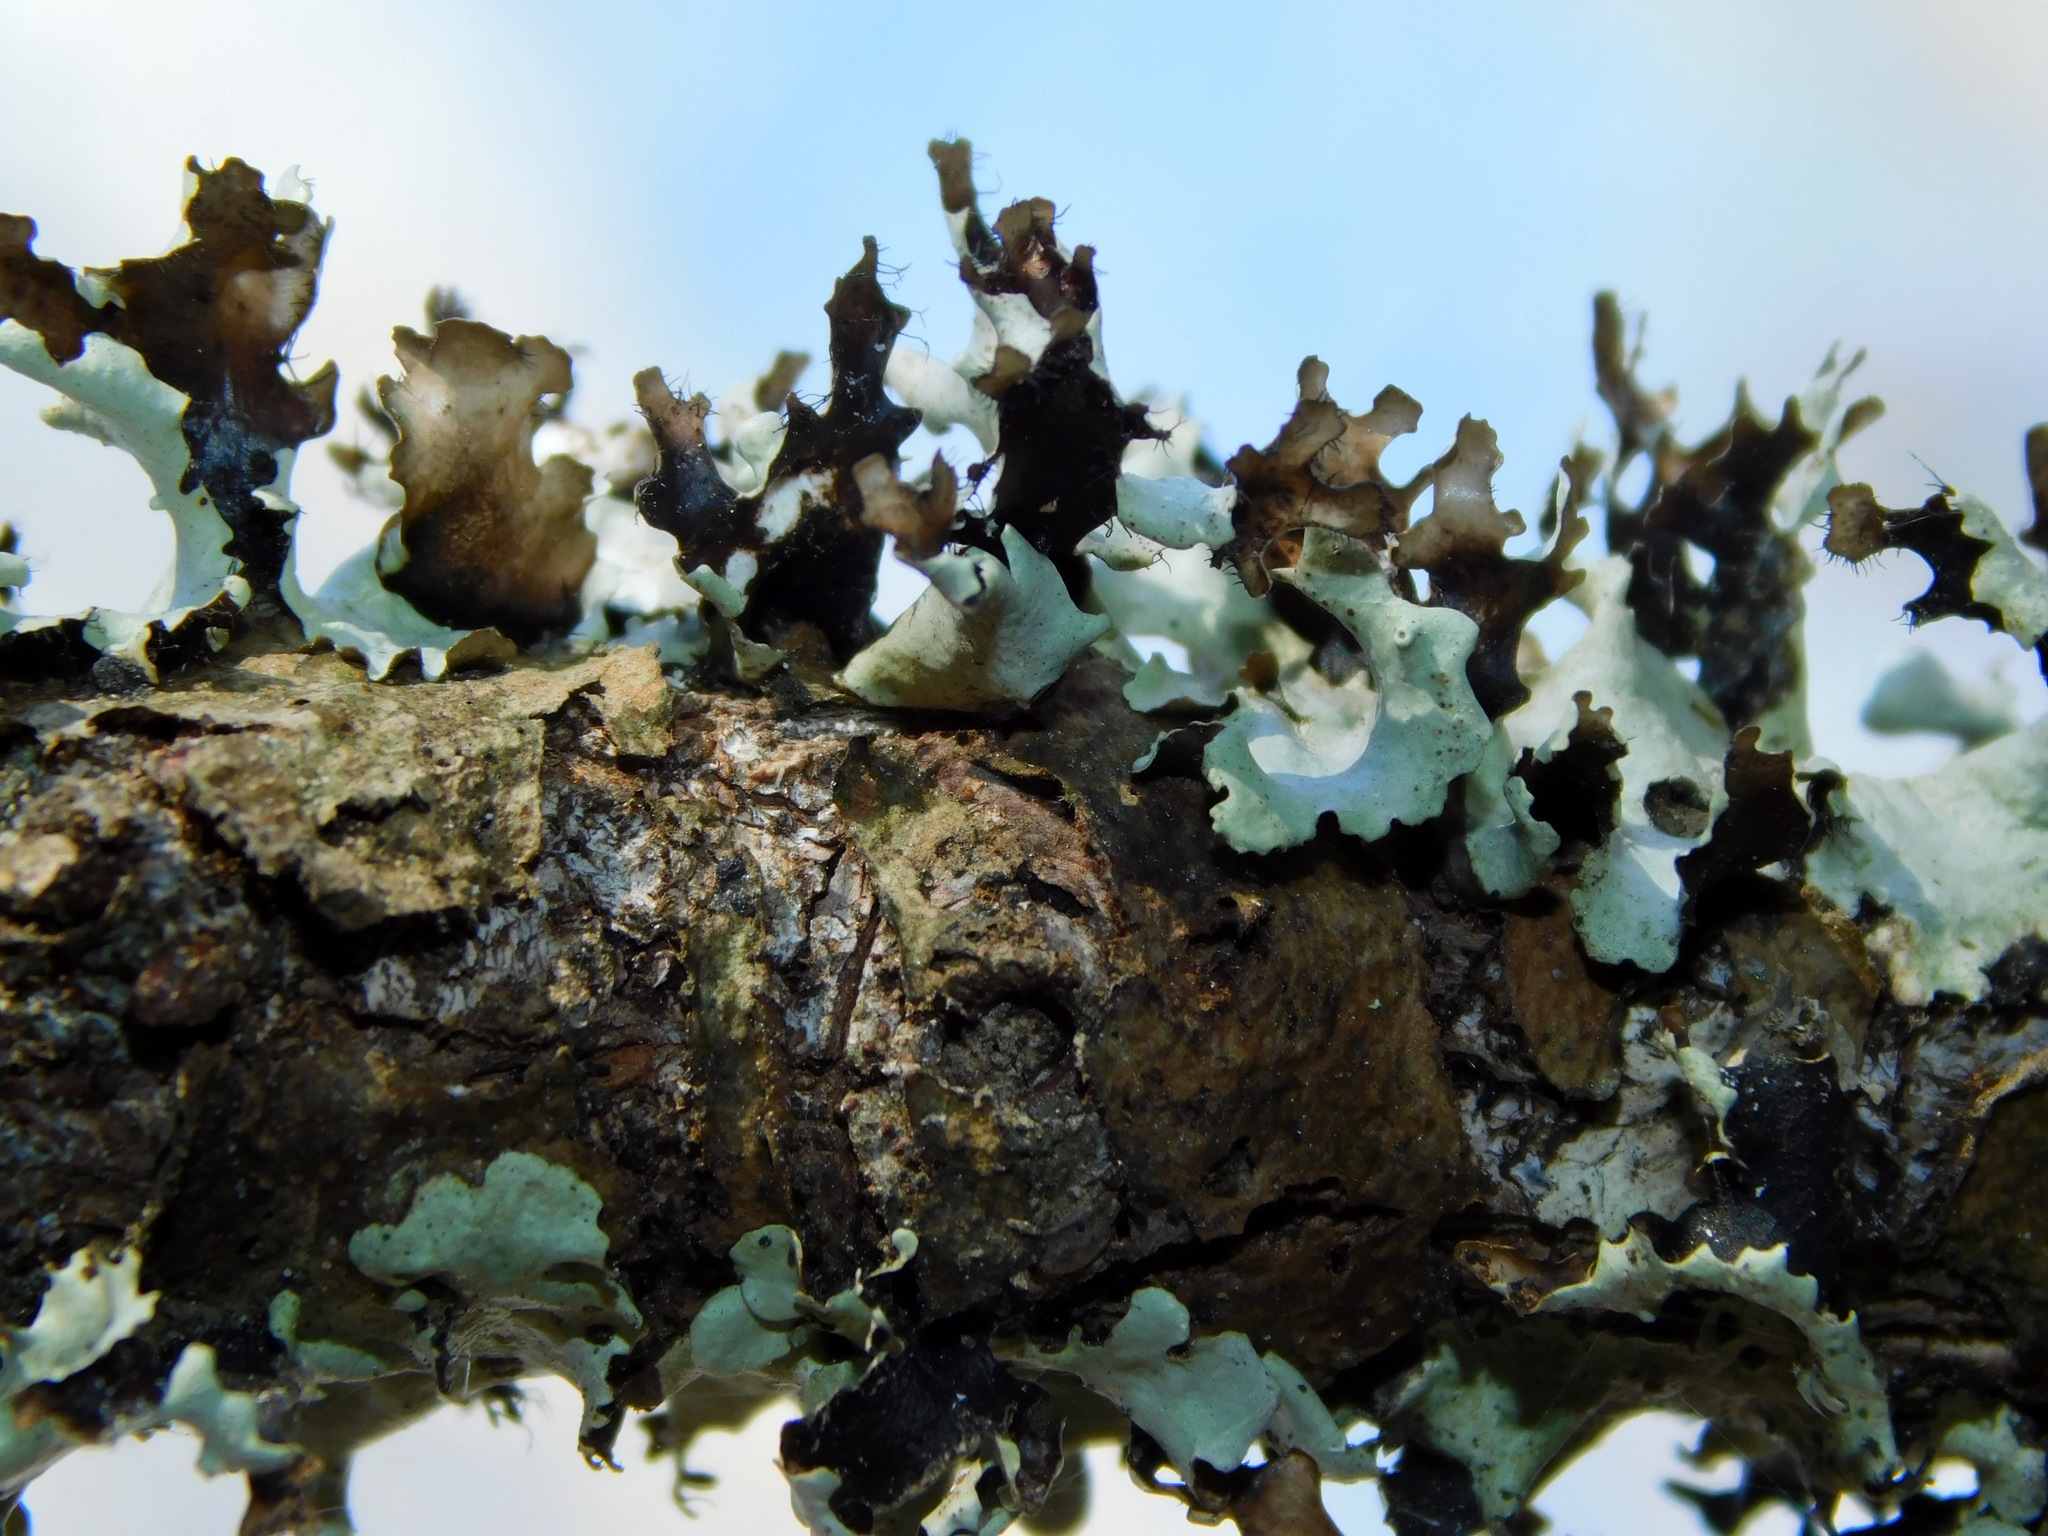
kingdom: Fungi
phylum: Ascomycota
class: Lecanoromycetes
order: Lecanorales
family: Parmeliaceae
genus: Parmotrema
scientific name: Parmotrema cetratum
